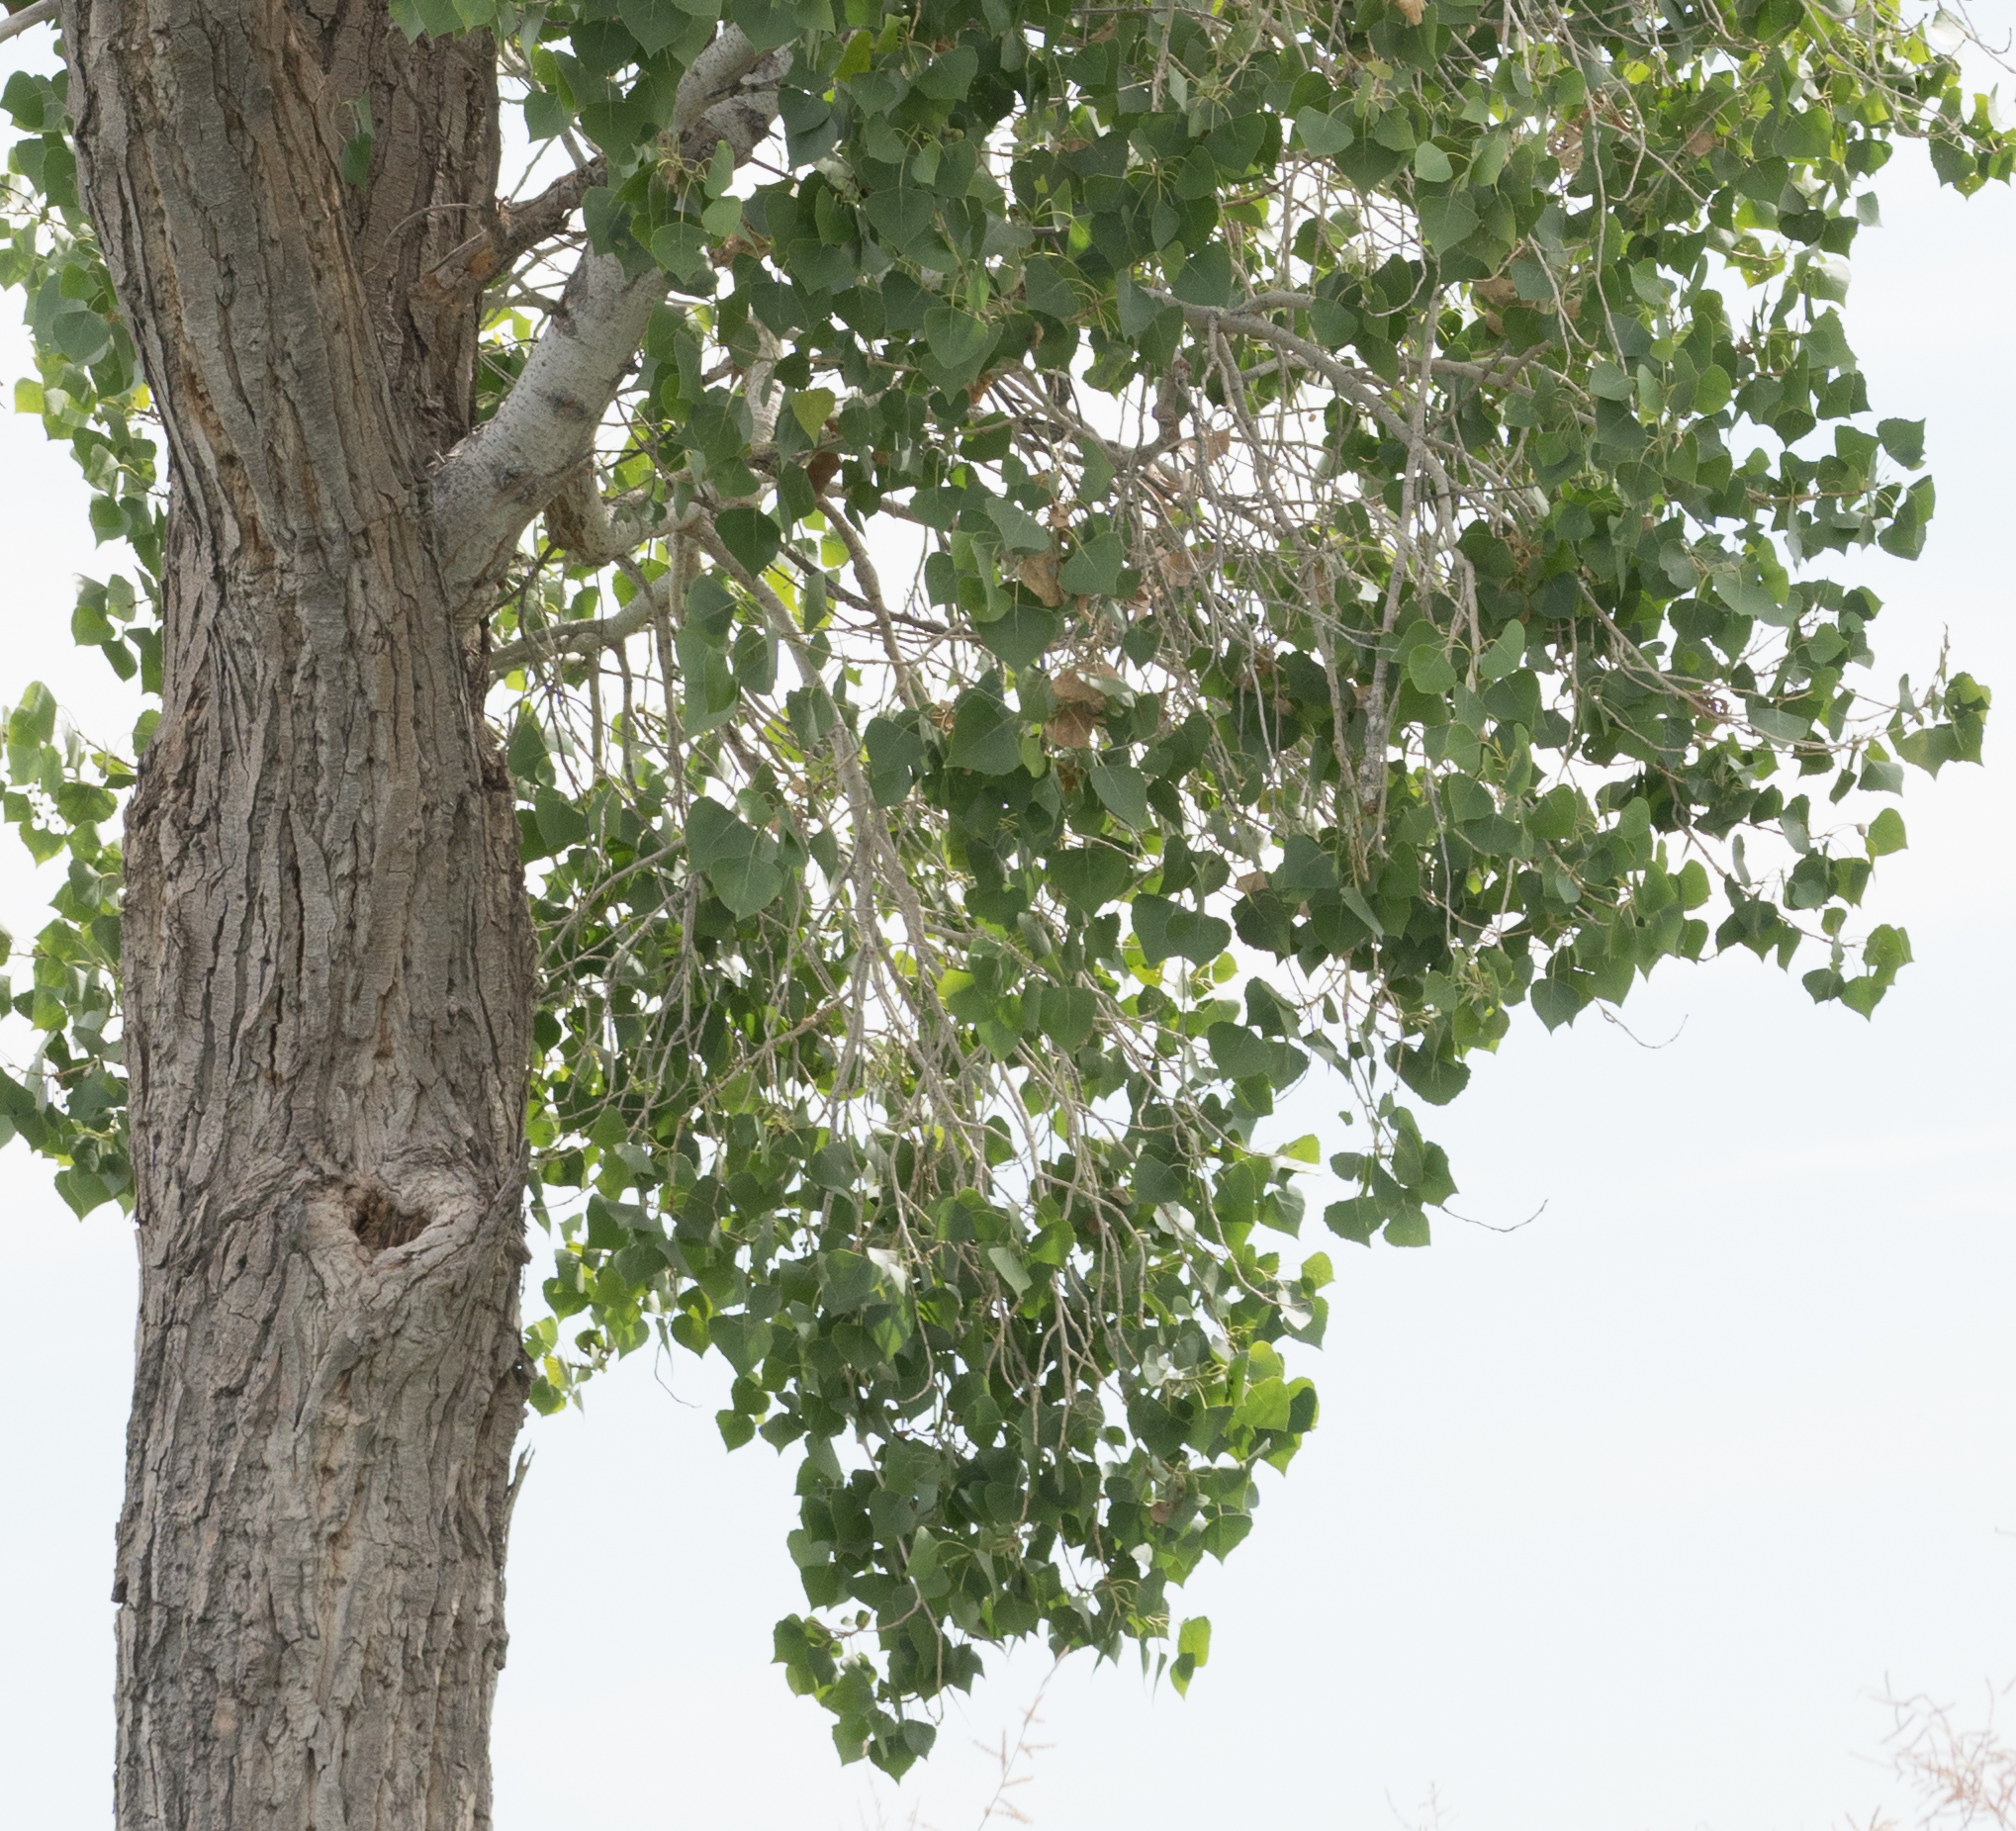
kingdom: Plantae
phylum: Tracheophyta
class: Magnoliopsida
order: Malpighiales
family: Salicaceae
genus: Populus
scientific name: Populus fremontii
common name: Fremont's cottonwood
